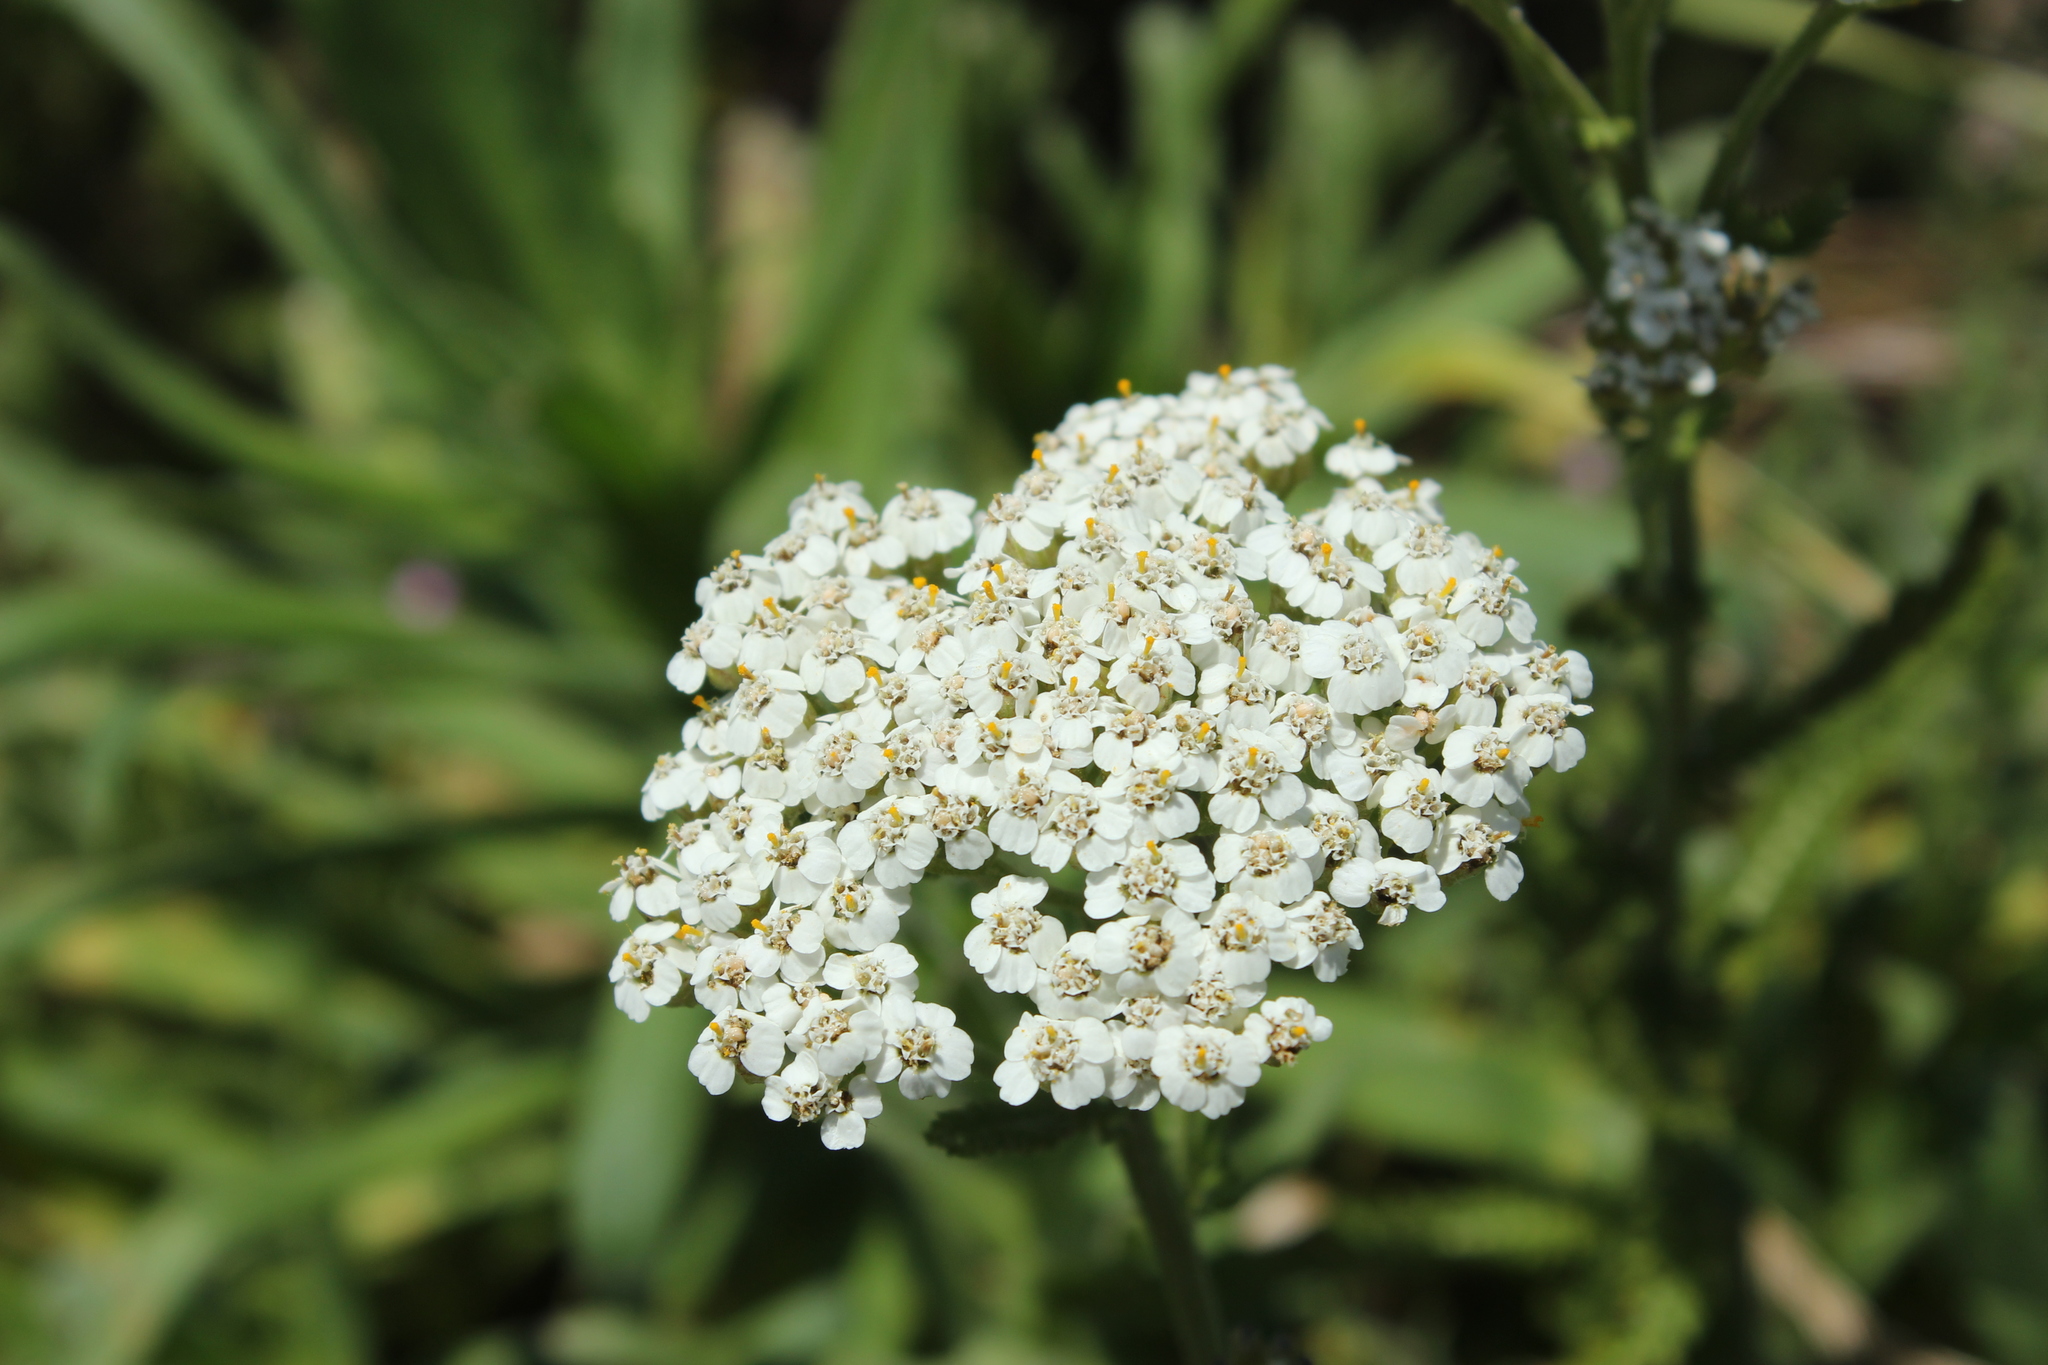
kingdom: Plantae
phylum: Tracheophyta
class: Magnoliopsida
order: Asterales
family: Asteraceae
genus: Achillea
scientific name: Achillea millefolium
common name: Yarrow
